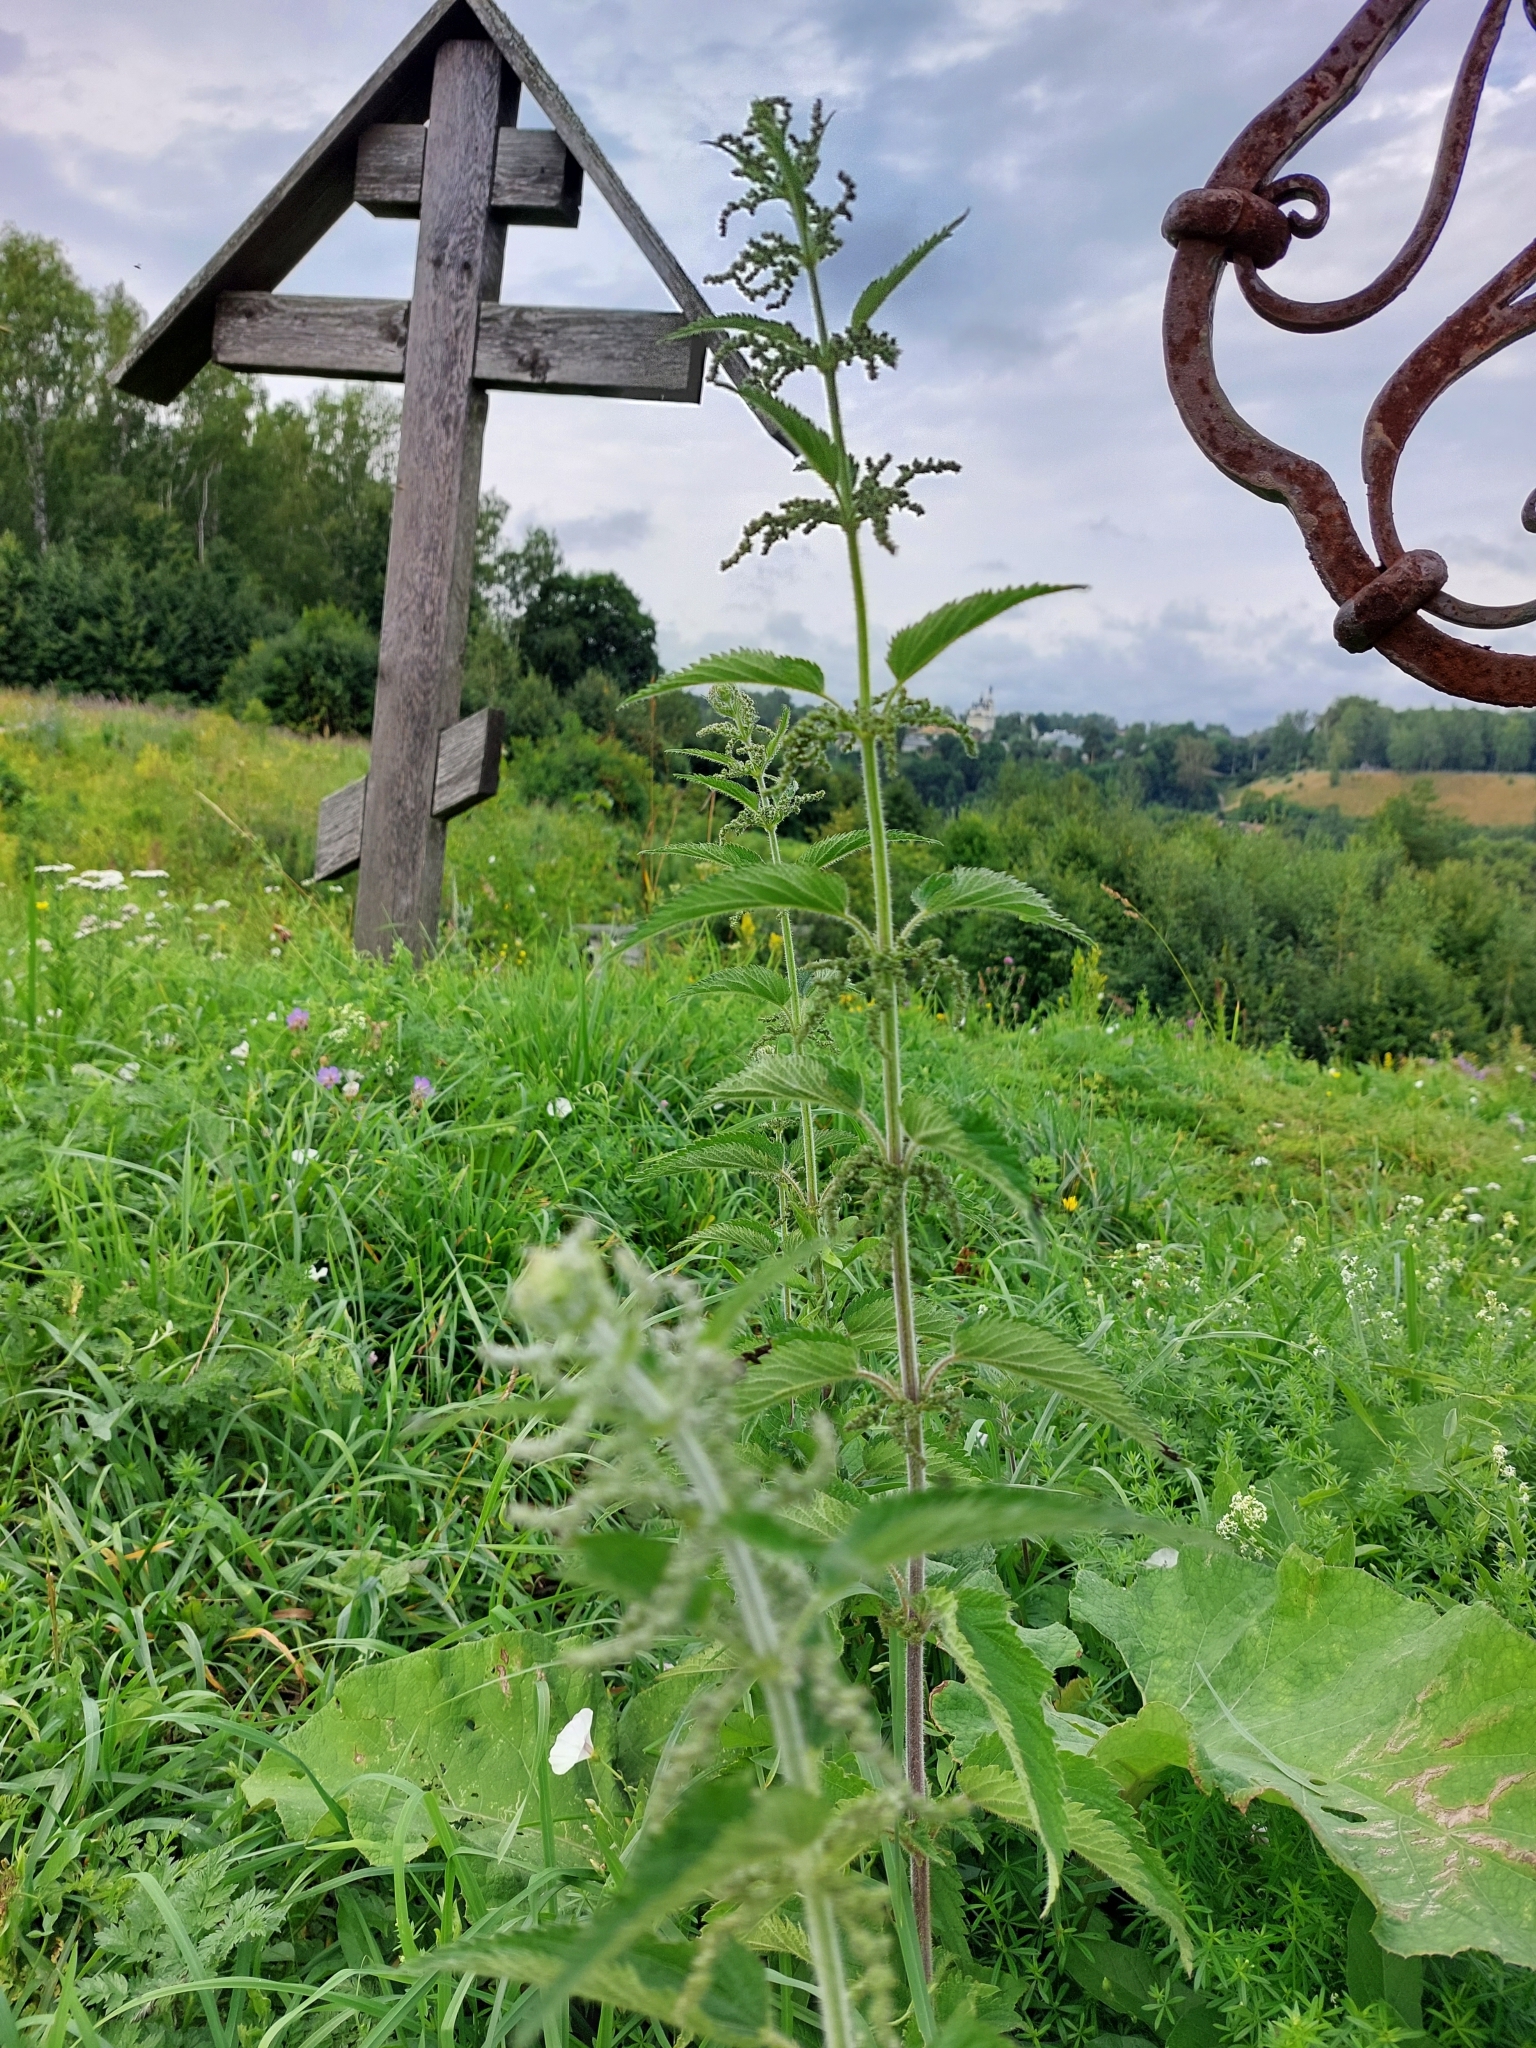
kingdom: Plantae
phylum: Tracheophyta
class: Magnoliopsida
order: Rosales
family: Urticaceae
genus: Urtica
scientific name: Urtica dioica
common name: Common nettle
